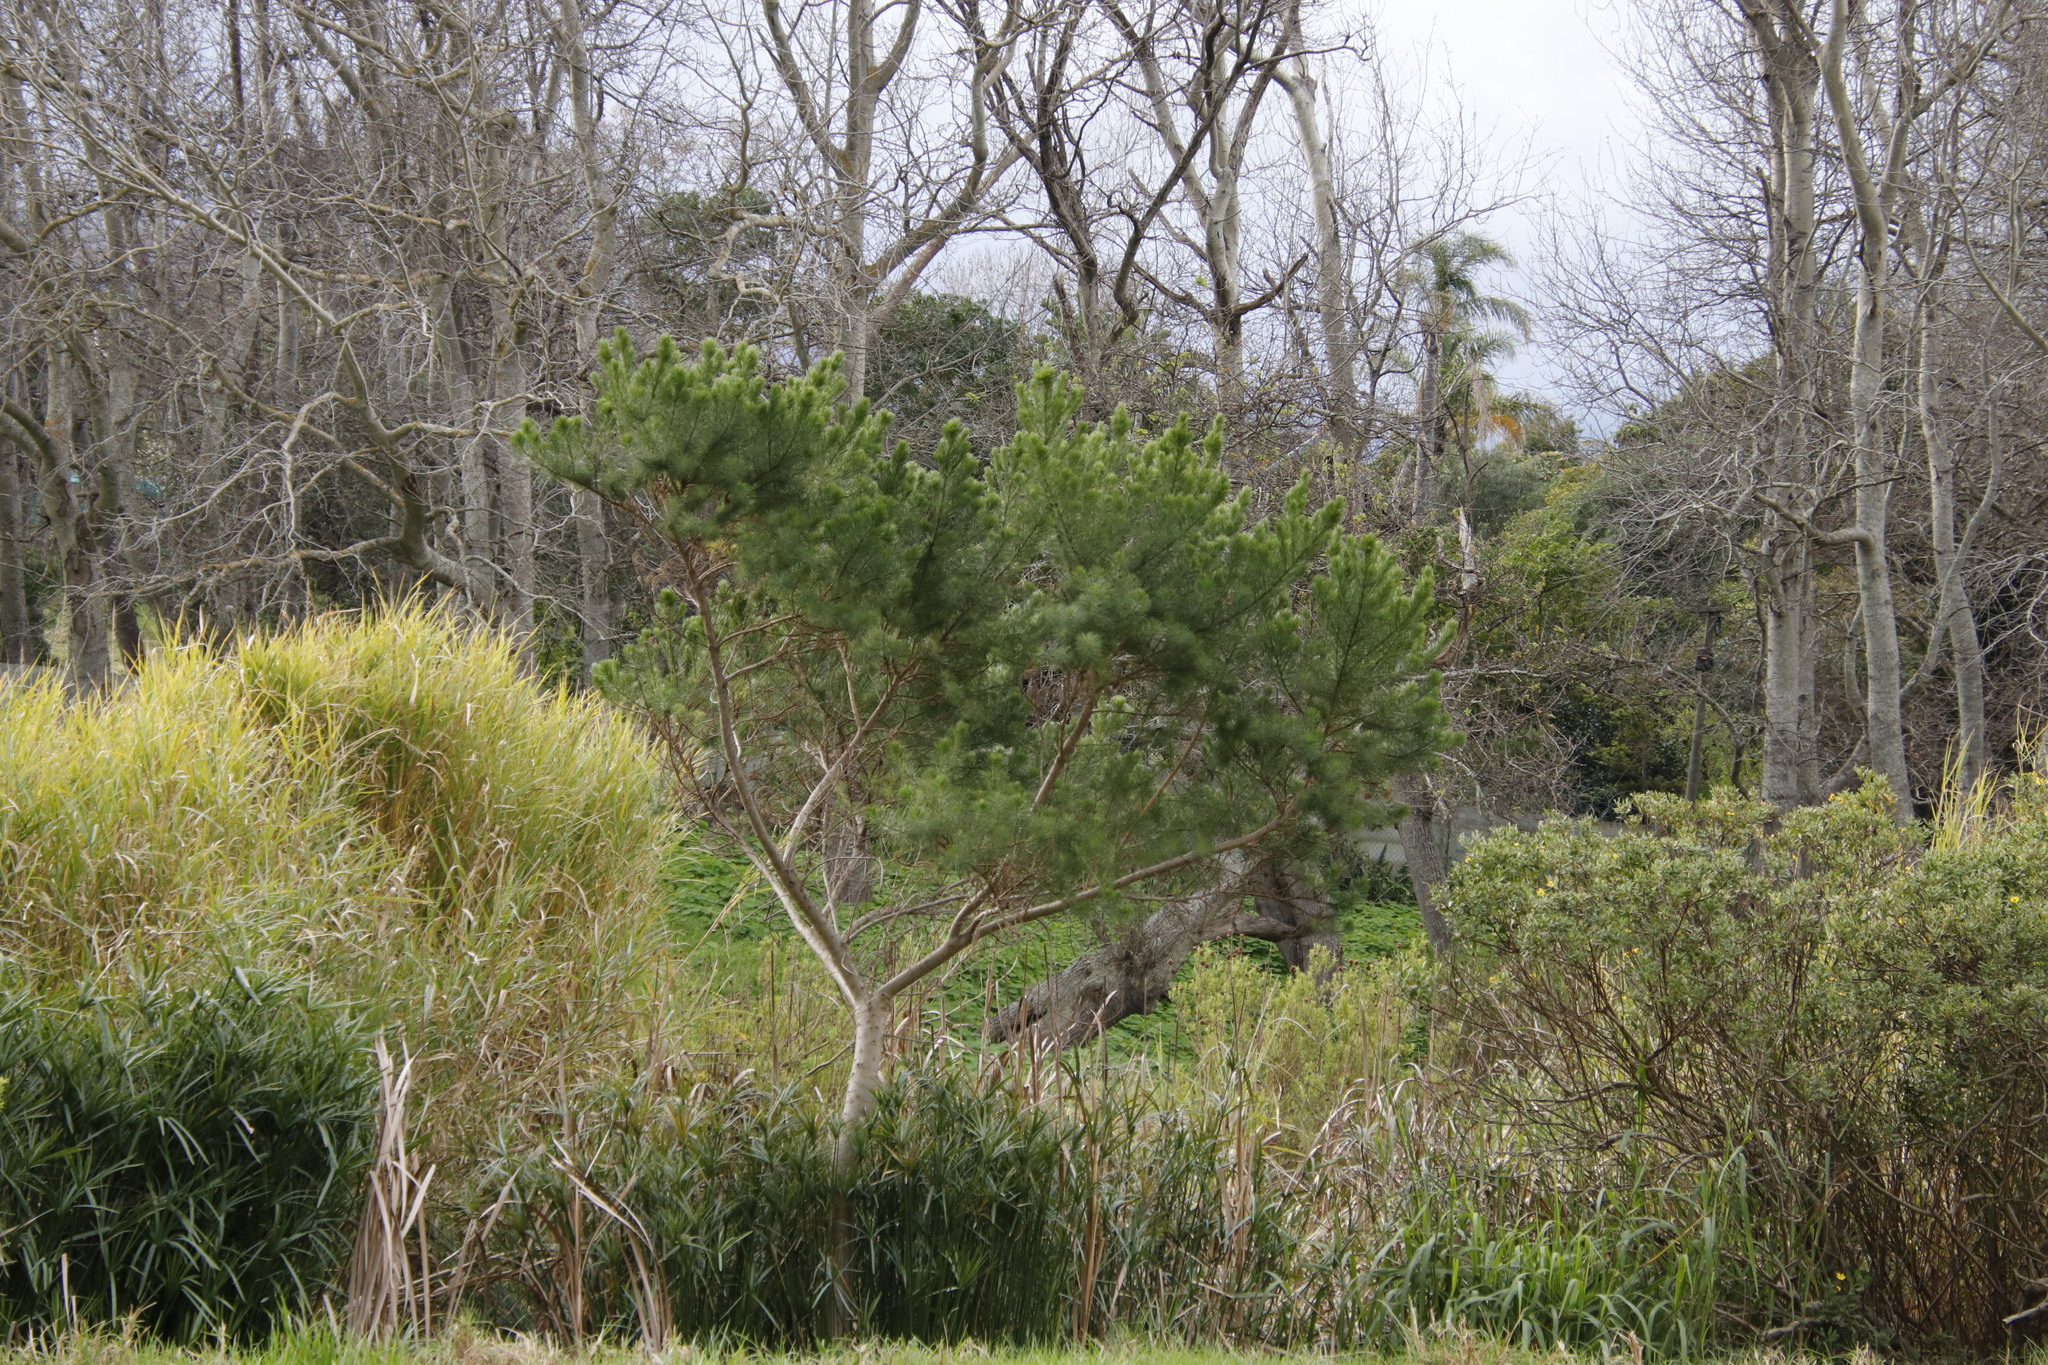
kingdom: Plantae
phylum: Tracheophyta
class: Magnoliopsida
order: Fabales
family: Fabaceae
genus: Psoralea
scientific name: Psoralea pinnata
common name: African scurfpea
